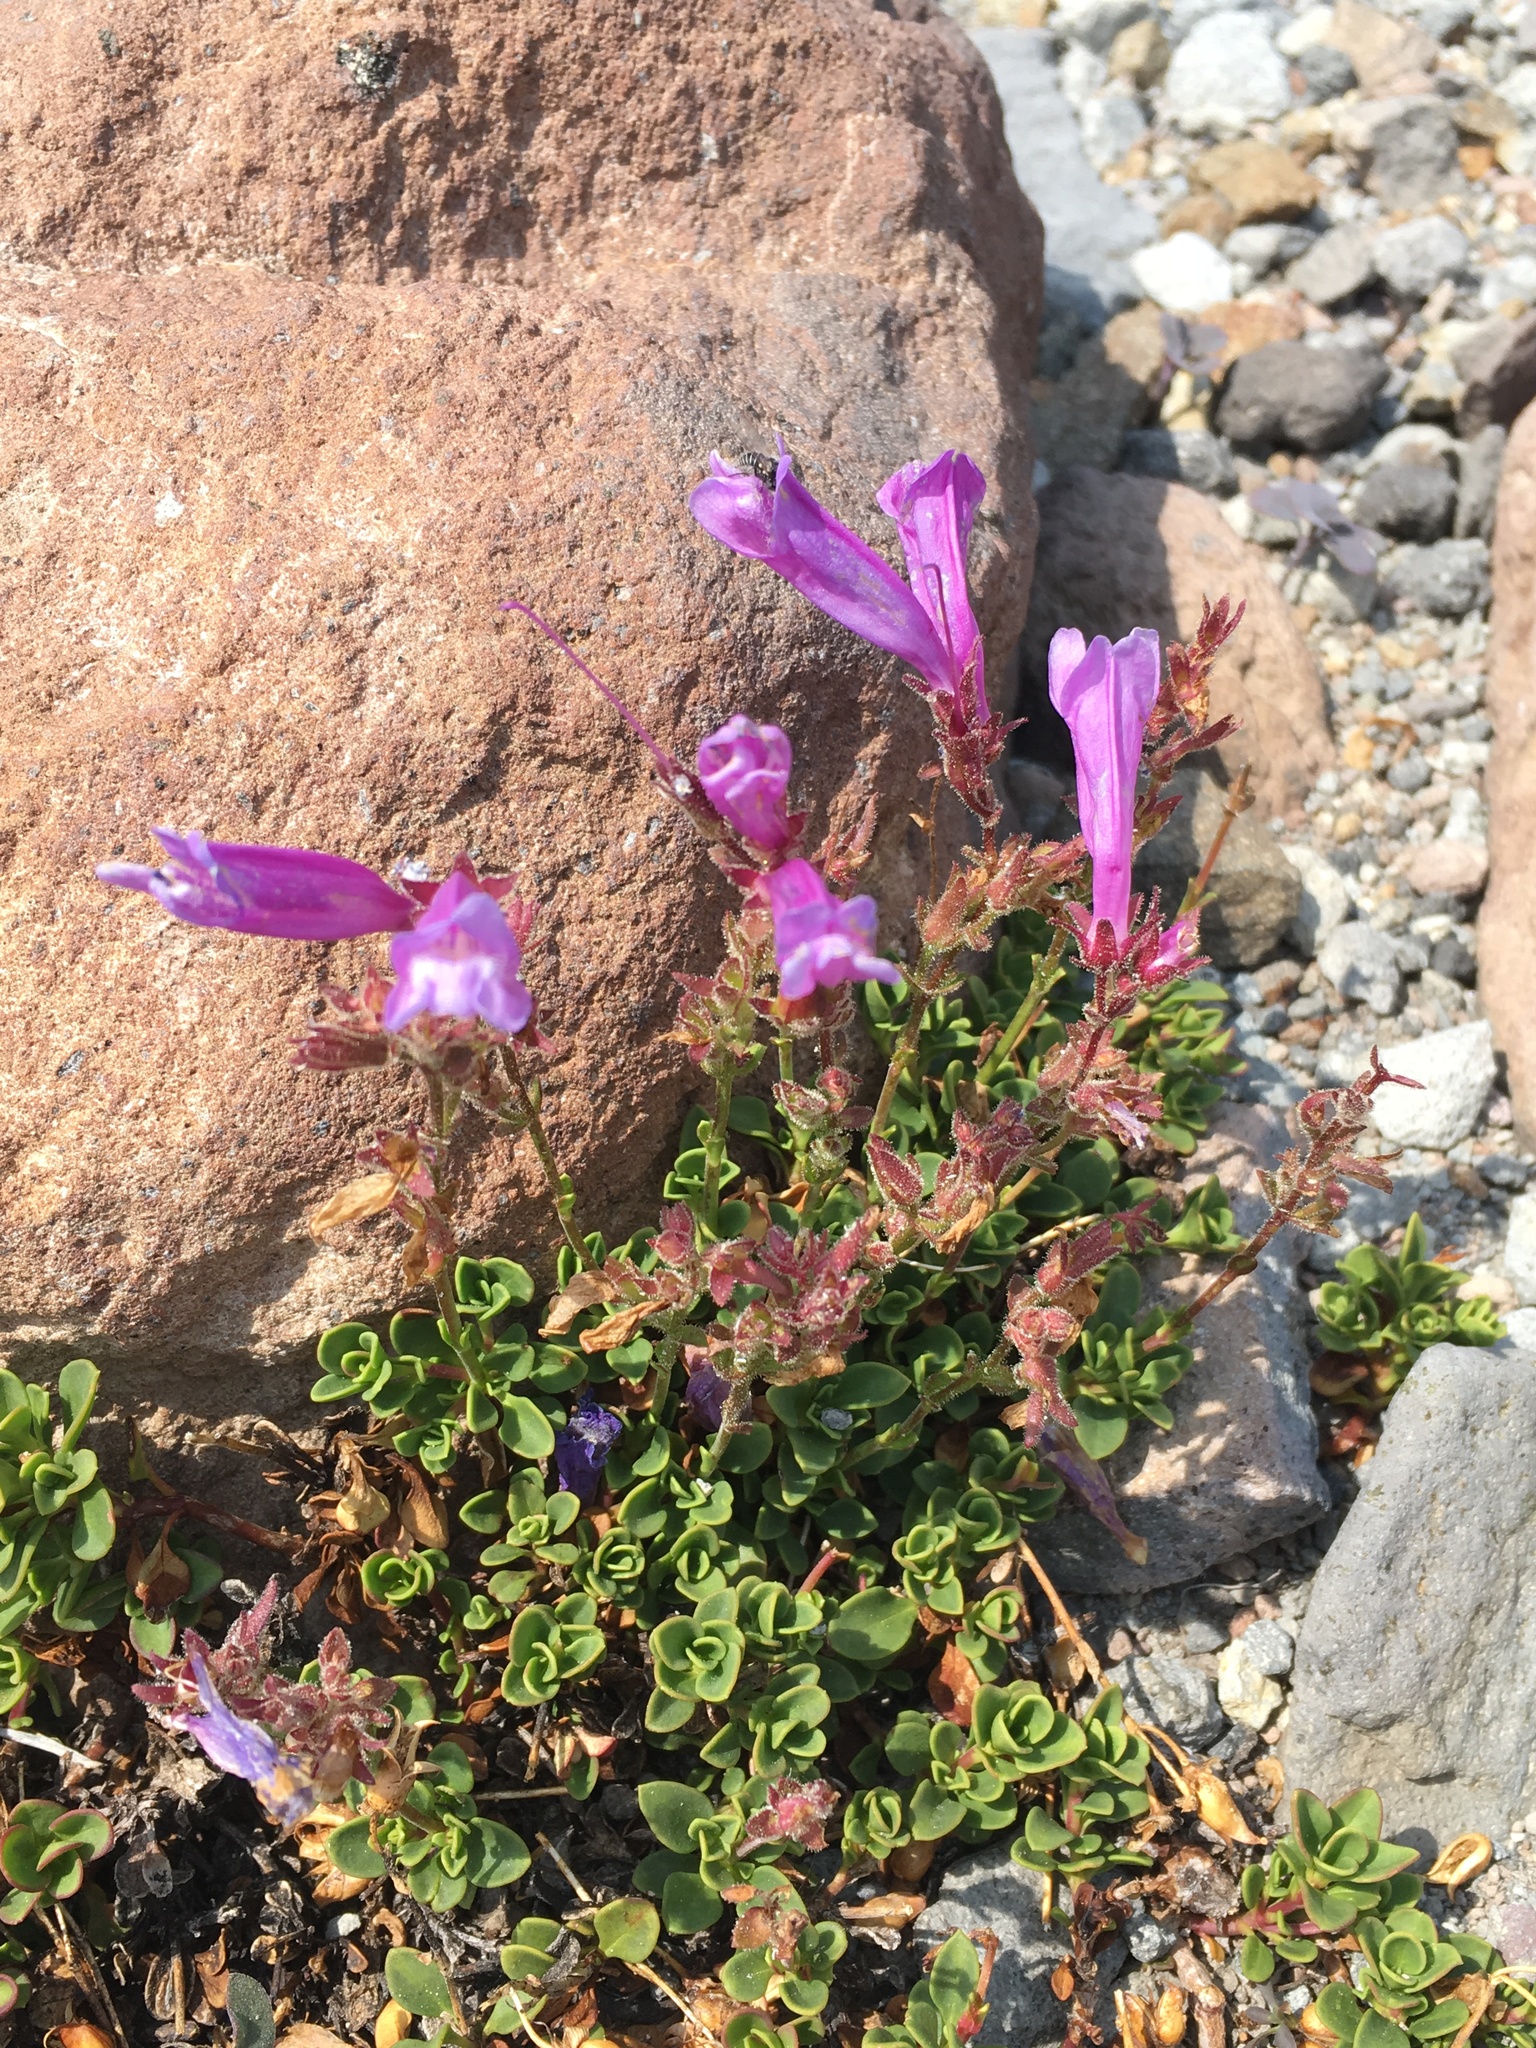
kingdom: Plantae
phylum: Tracheophyta
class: Magnoliopsida
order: Lamiales
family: Plantaginaceae
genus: Penstemon
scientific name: Penstemon davidsonii
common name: Davidson's penstemon
